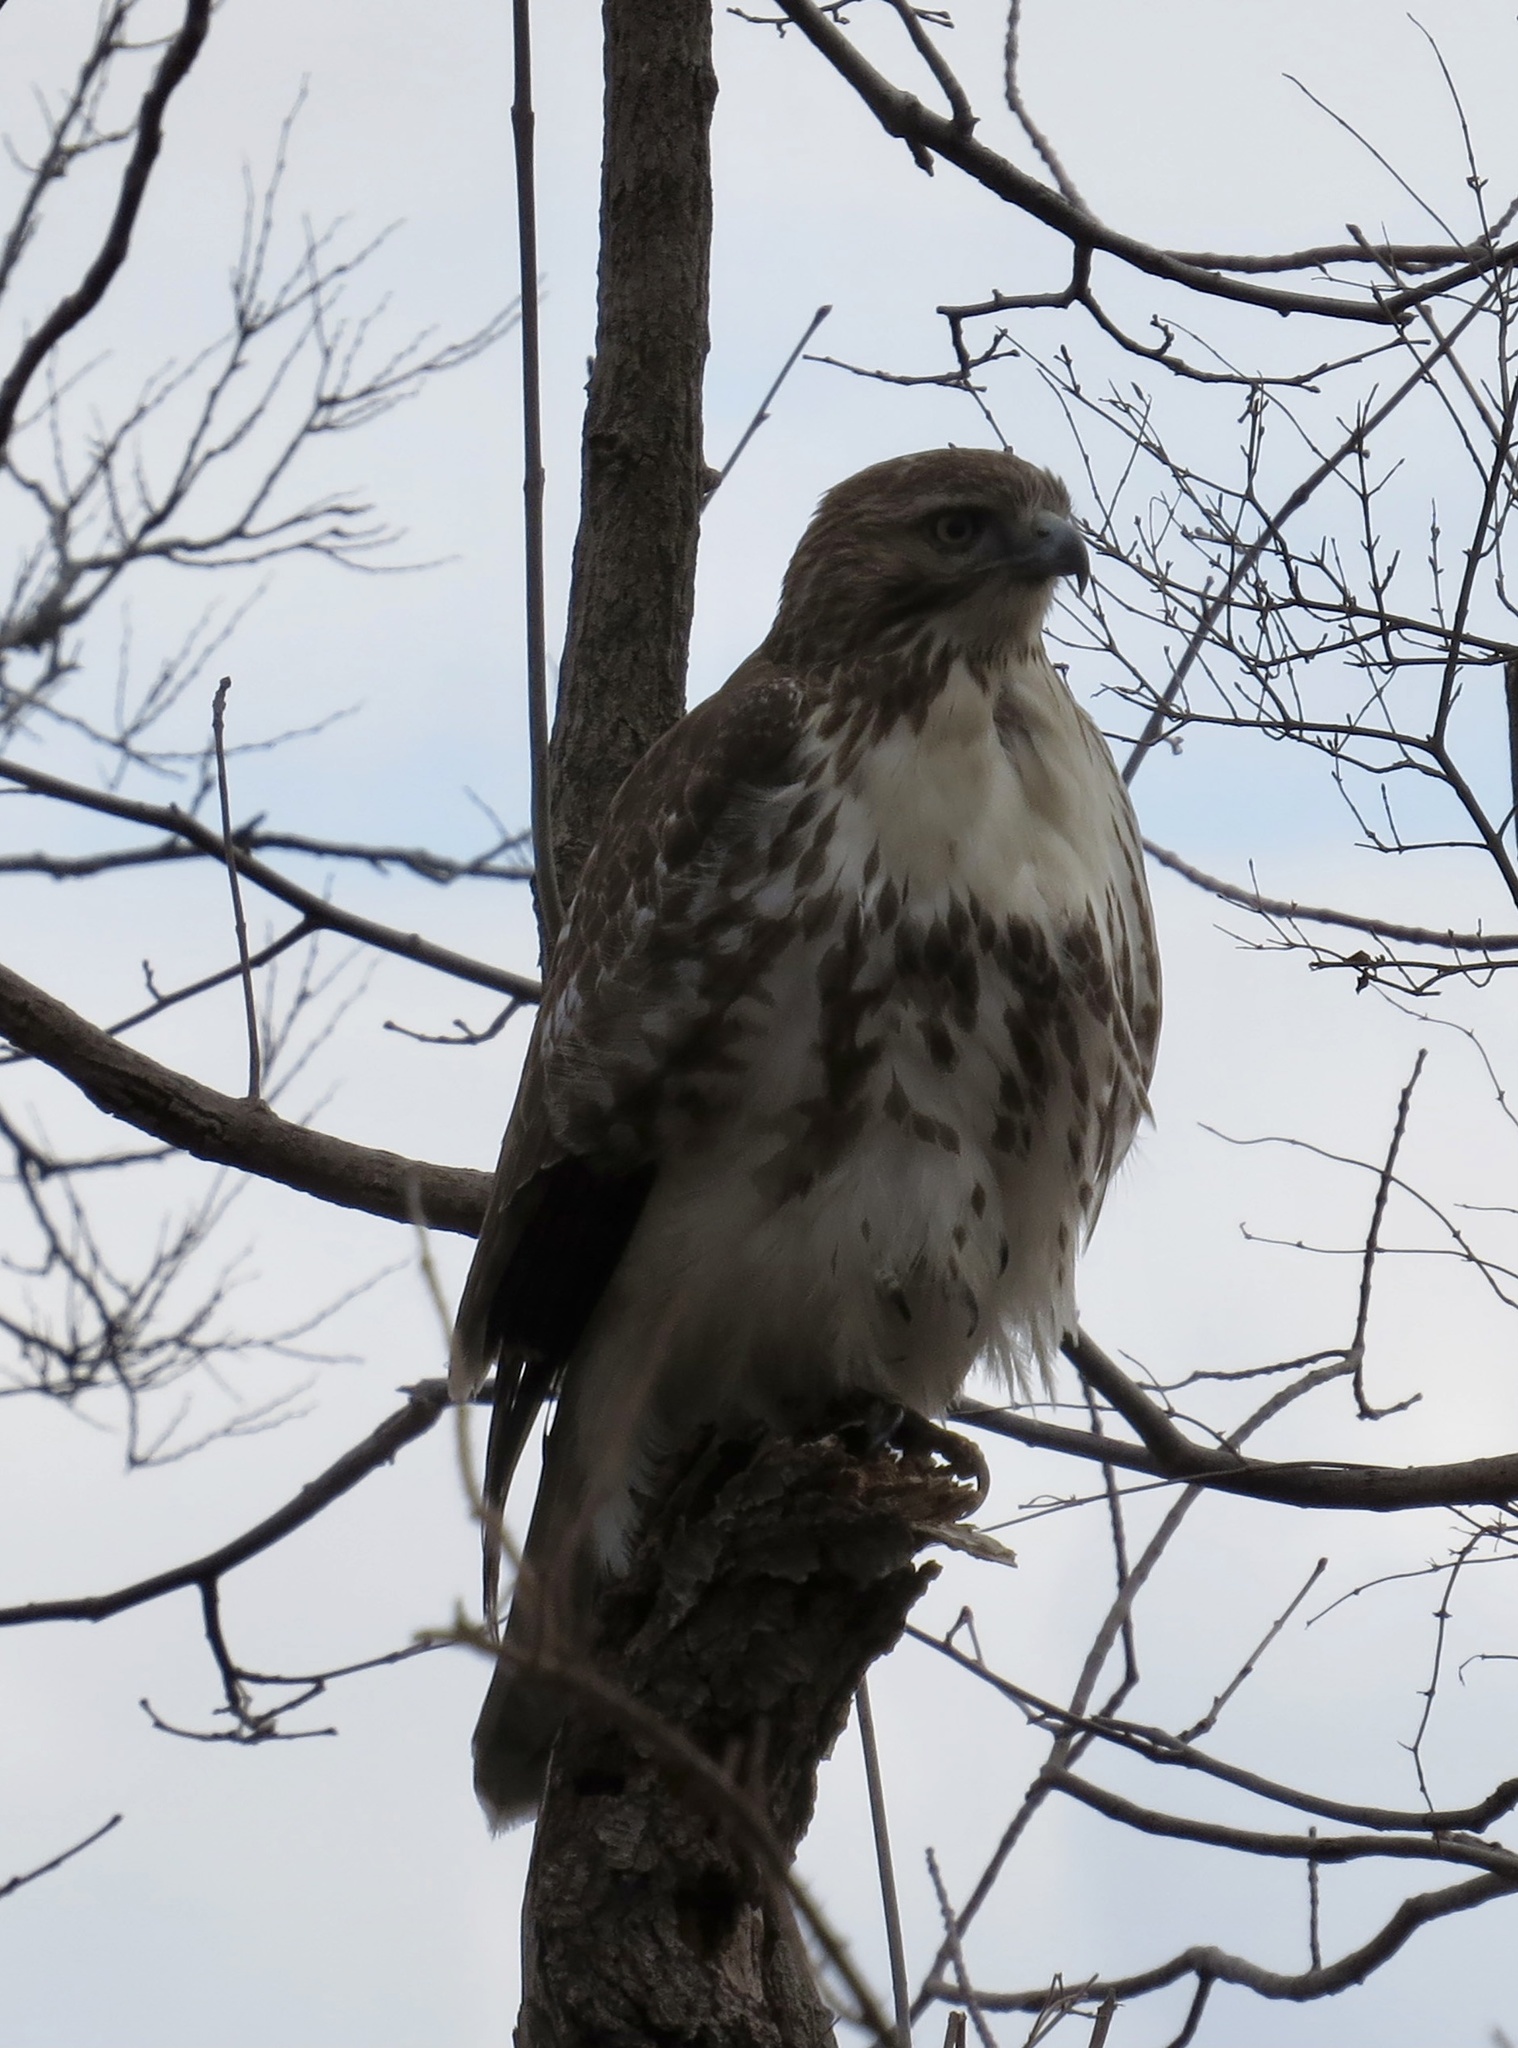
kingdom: Animalia
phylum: Chordata
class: Aves
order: Accipitriformes
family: Accipitridae
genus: Buteo
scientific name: Buteo jamaicensis
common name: Red-tailed hawk
